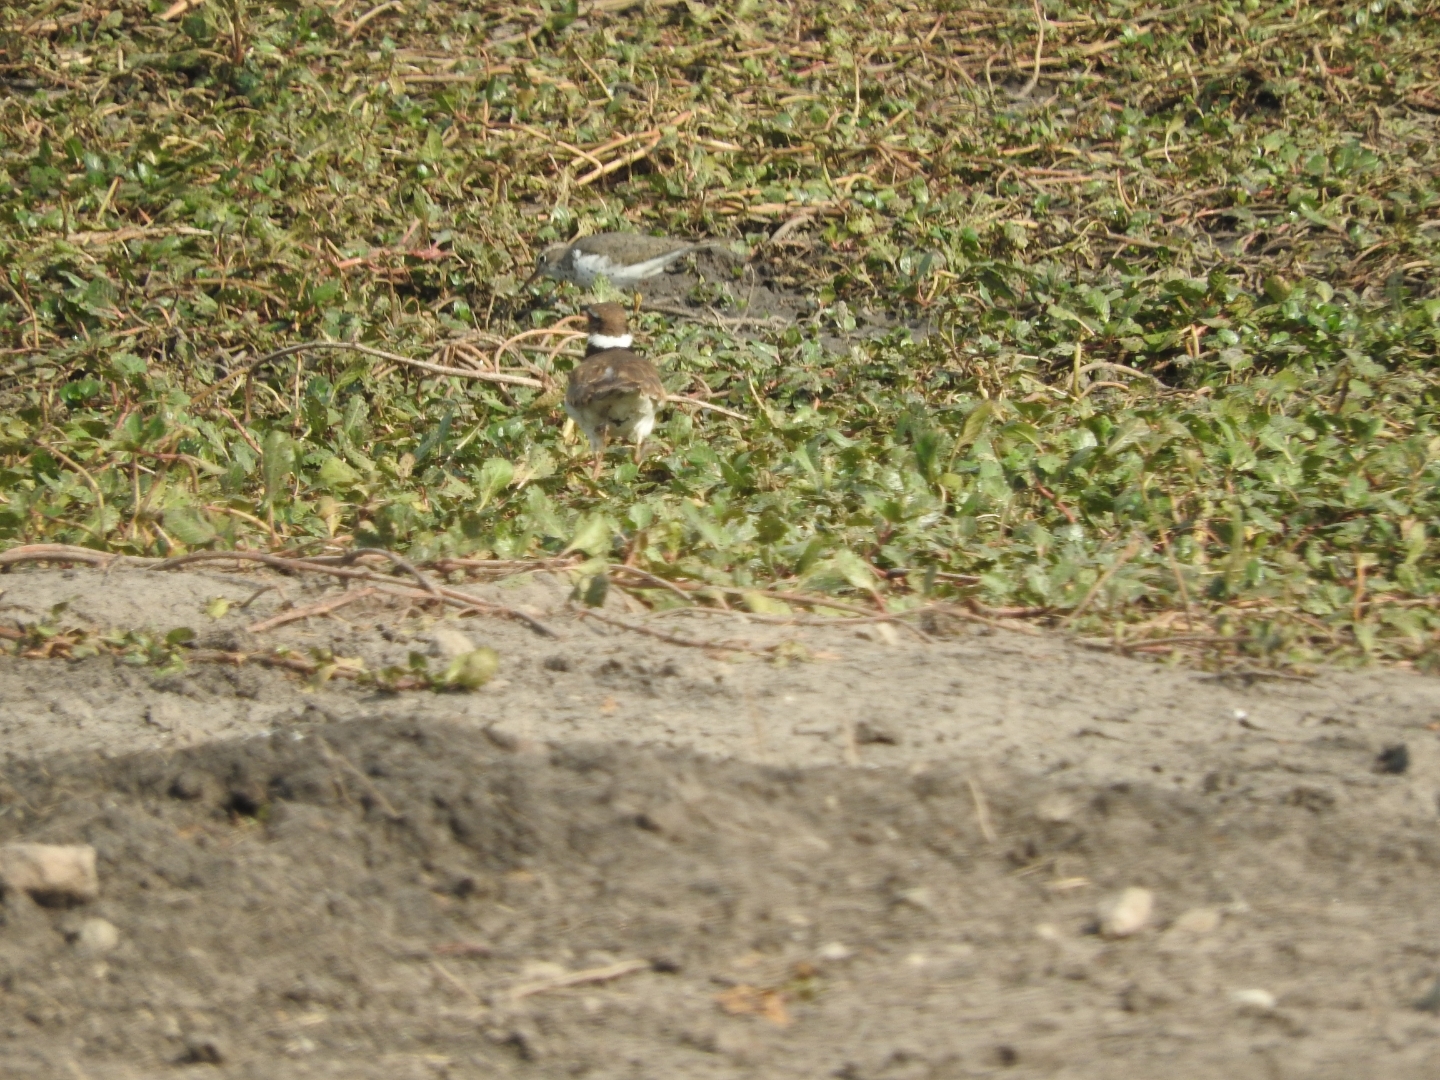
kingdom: Animalia
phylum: Chordata
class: Aves
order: Charadriiformes
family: Charadriidae
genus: Charadrius
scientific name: Charadrius vociferus
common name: Killdeer
